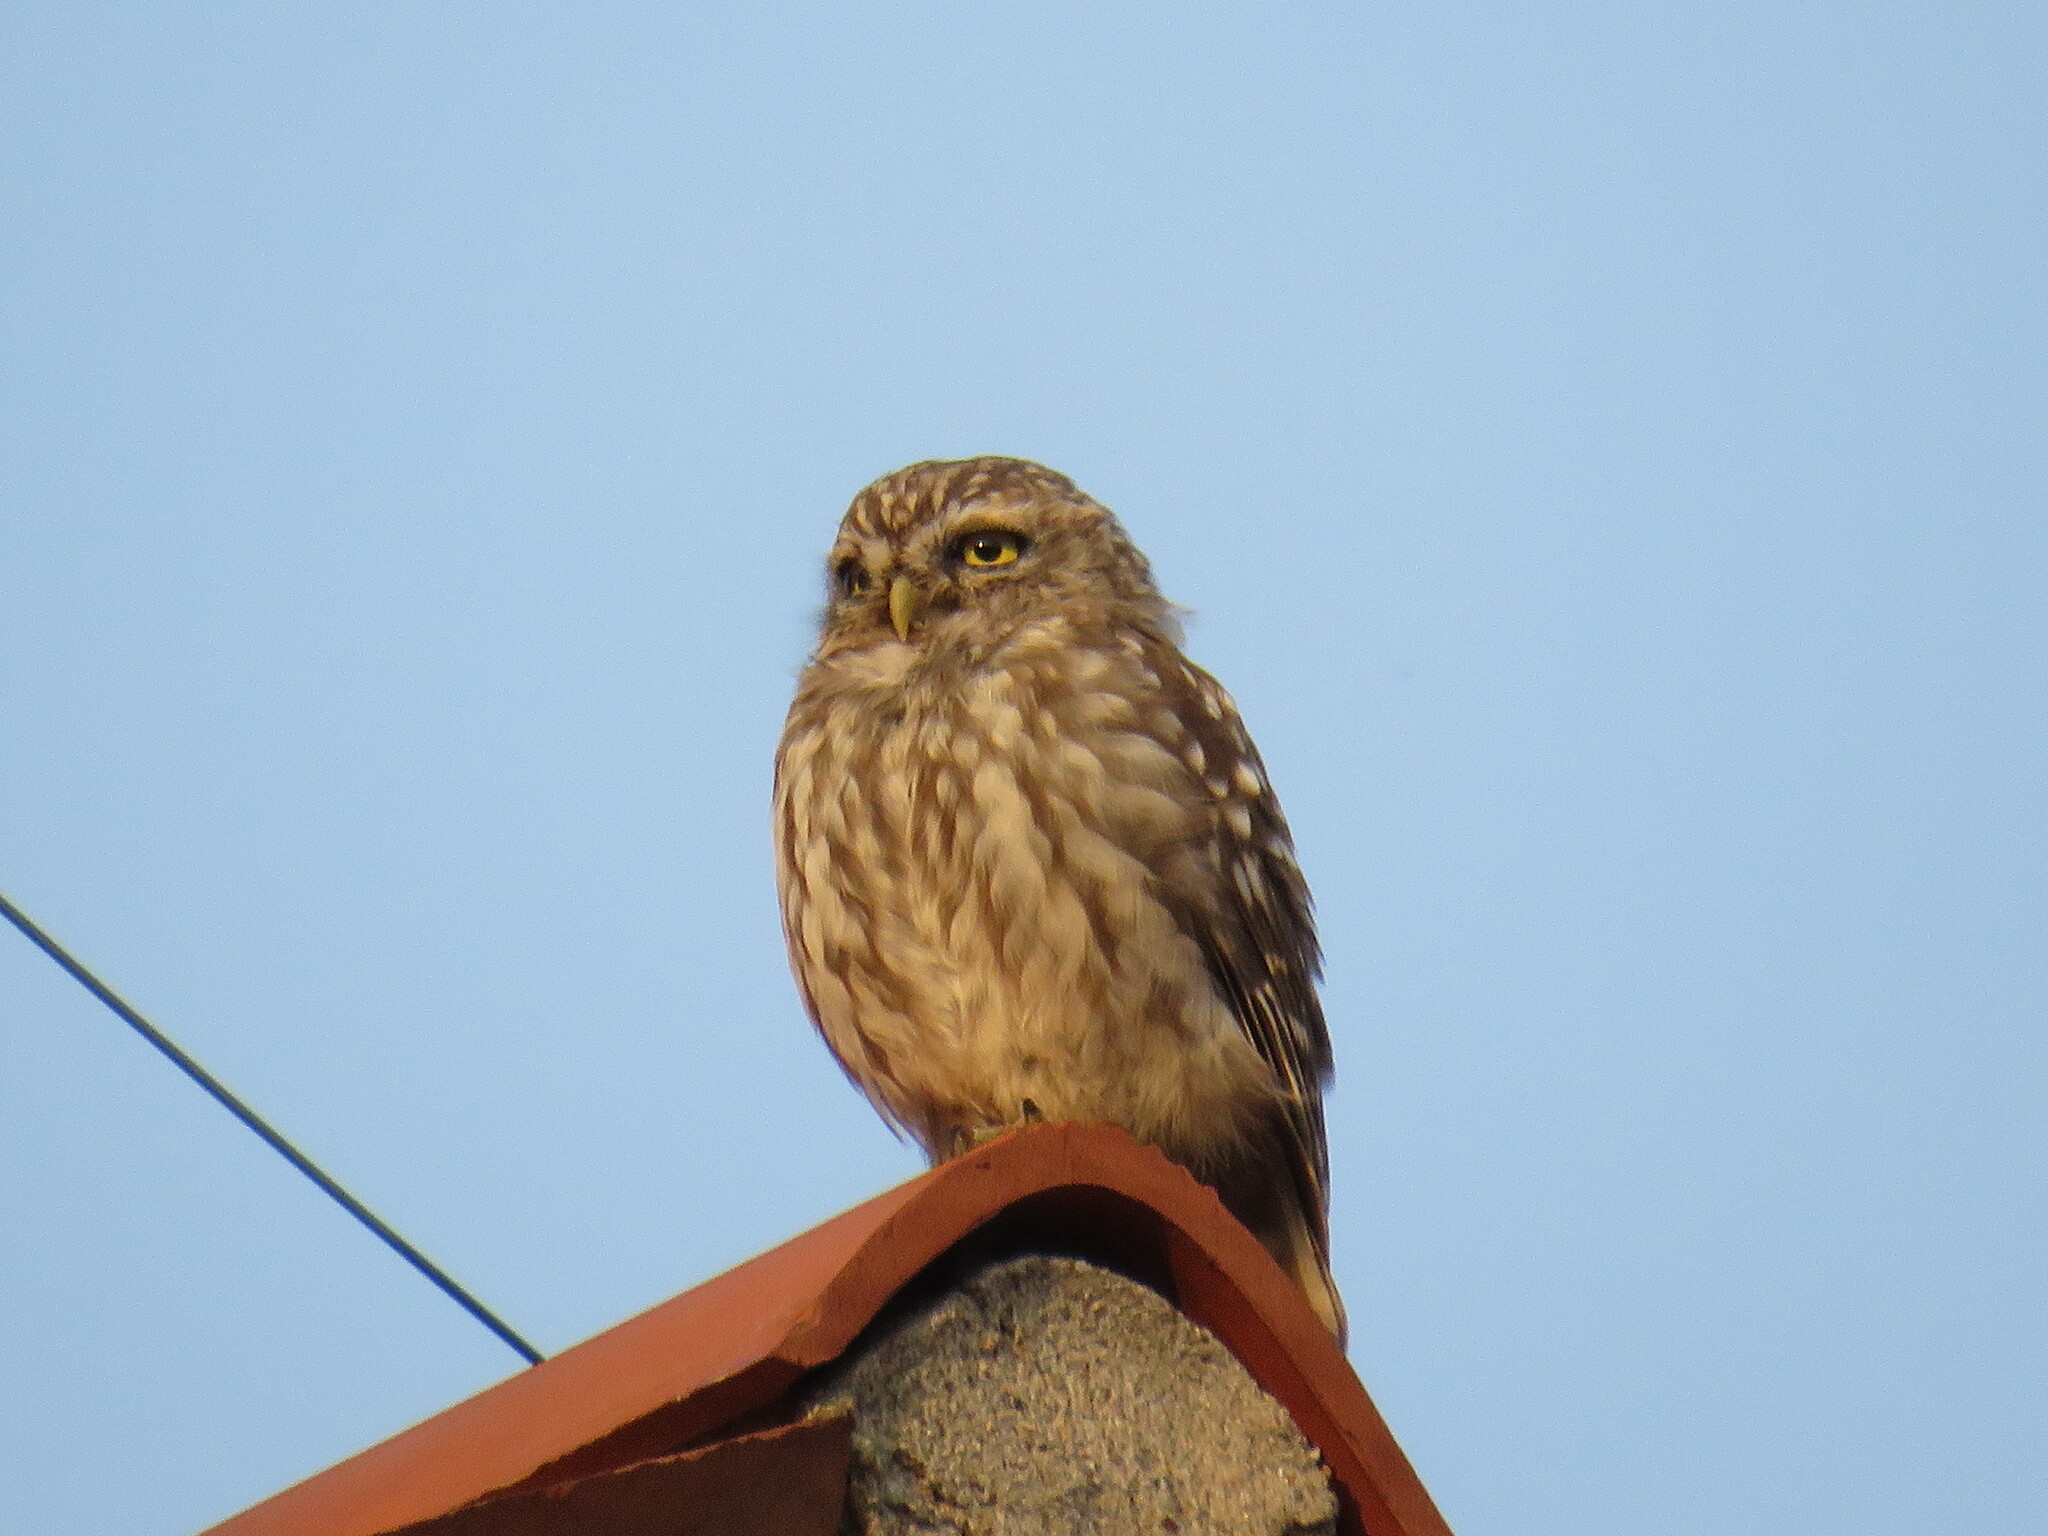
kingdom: Animalia
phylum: Chordata
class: Aves
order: Strigiformes
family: Strigidae
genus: Athene
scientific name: Athene noctua
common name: Little owl
